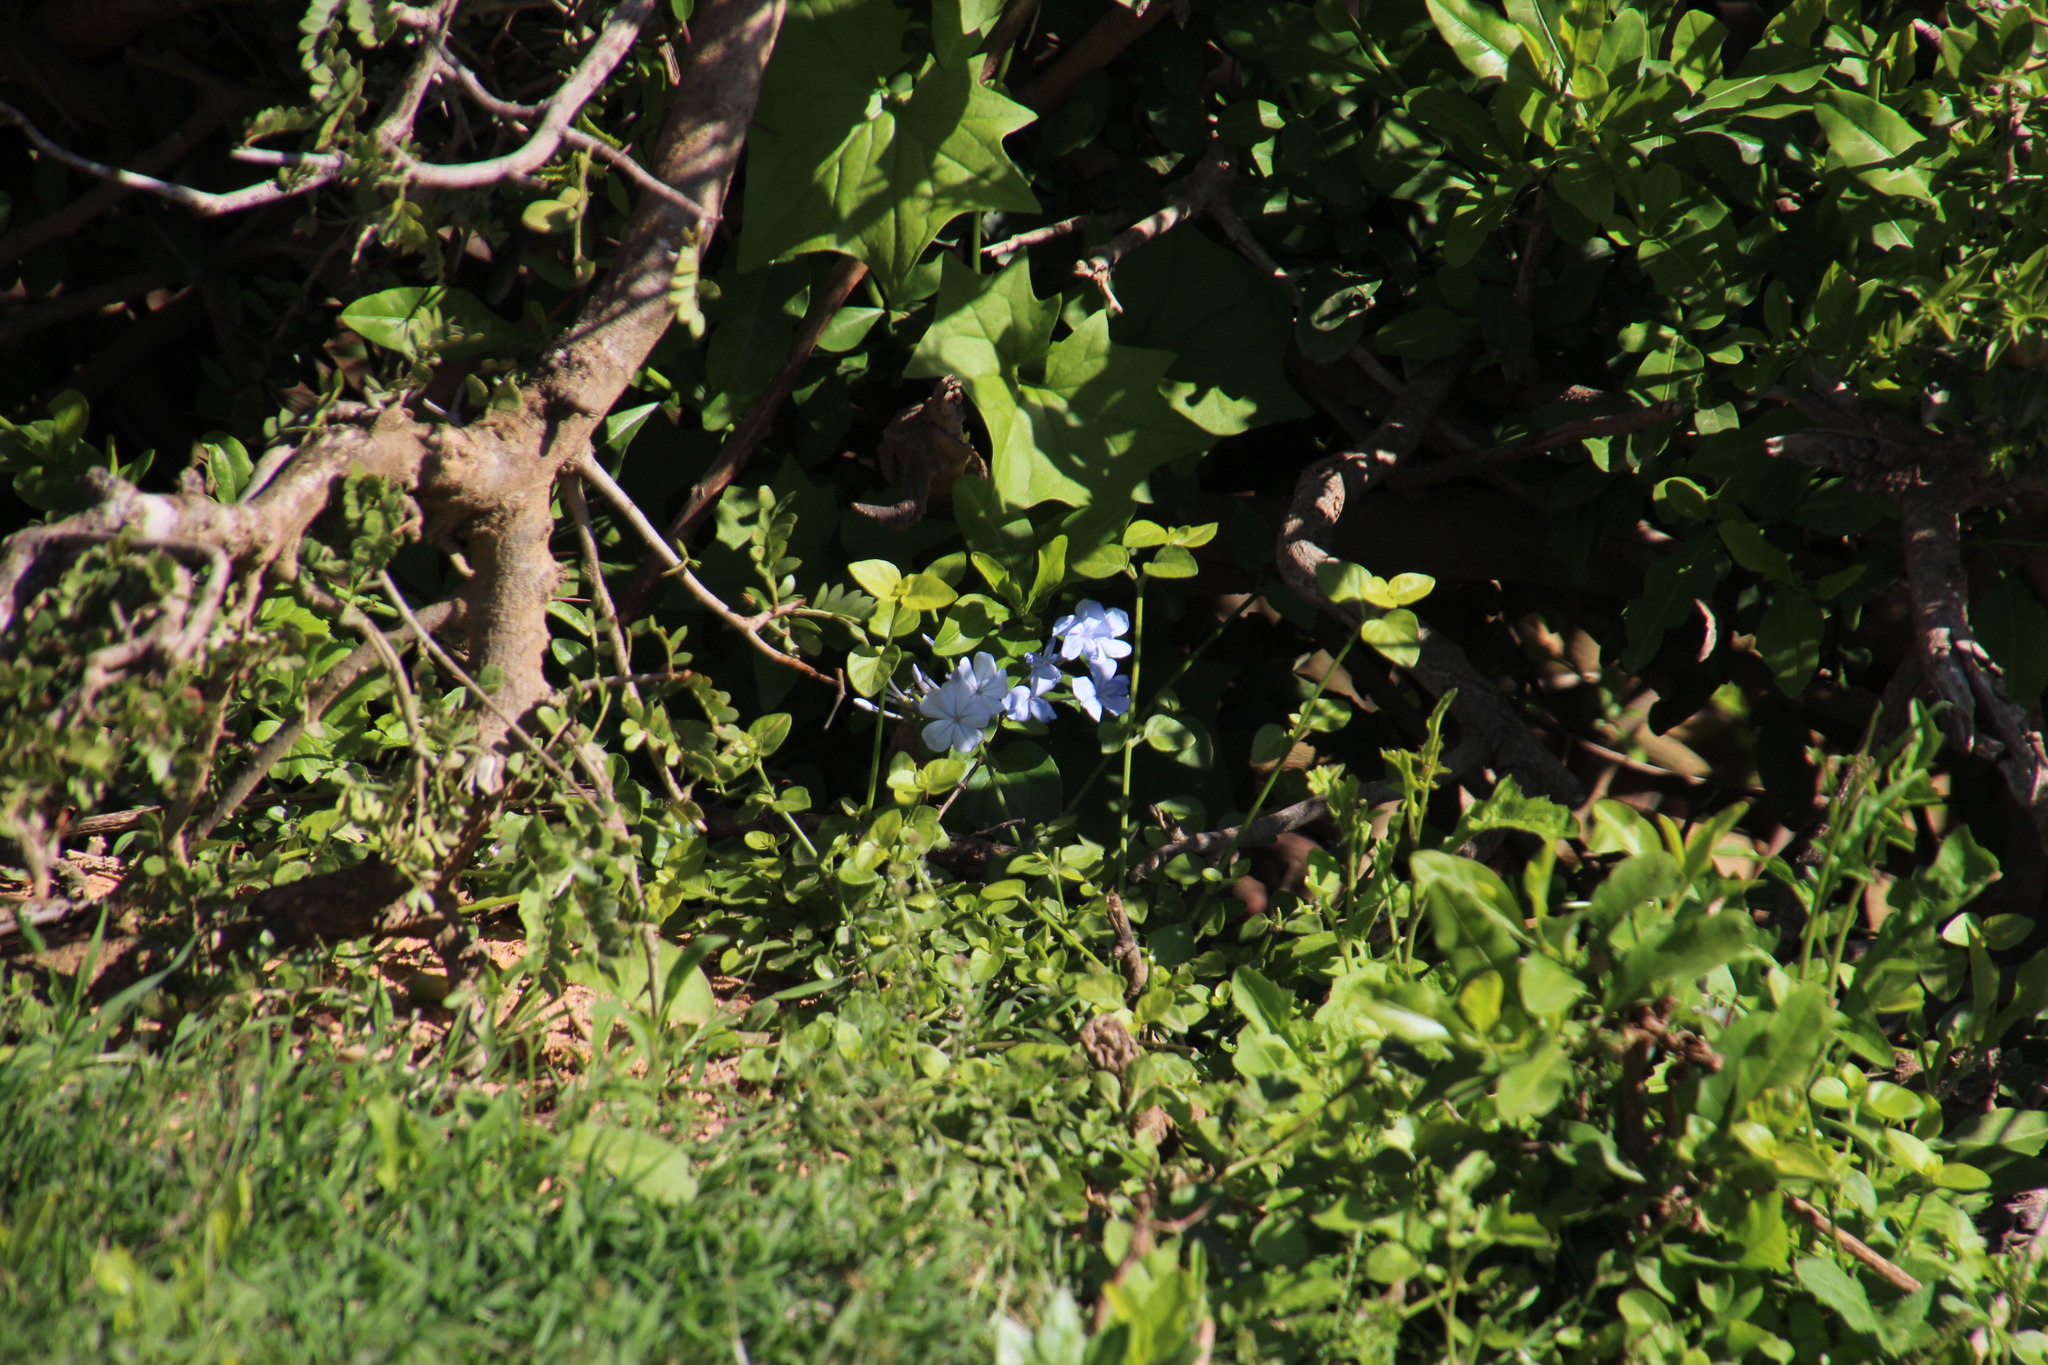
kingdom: Plantae
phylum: Tracheophyta
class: Magnoliopsida
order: Caryophyllales
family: Plumbaginaceae
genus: Plumbago
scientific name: Plumbago auriculata
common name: Cape leadwort
